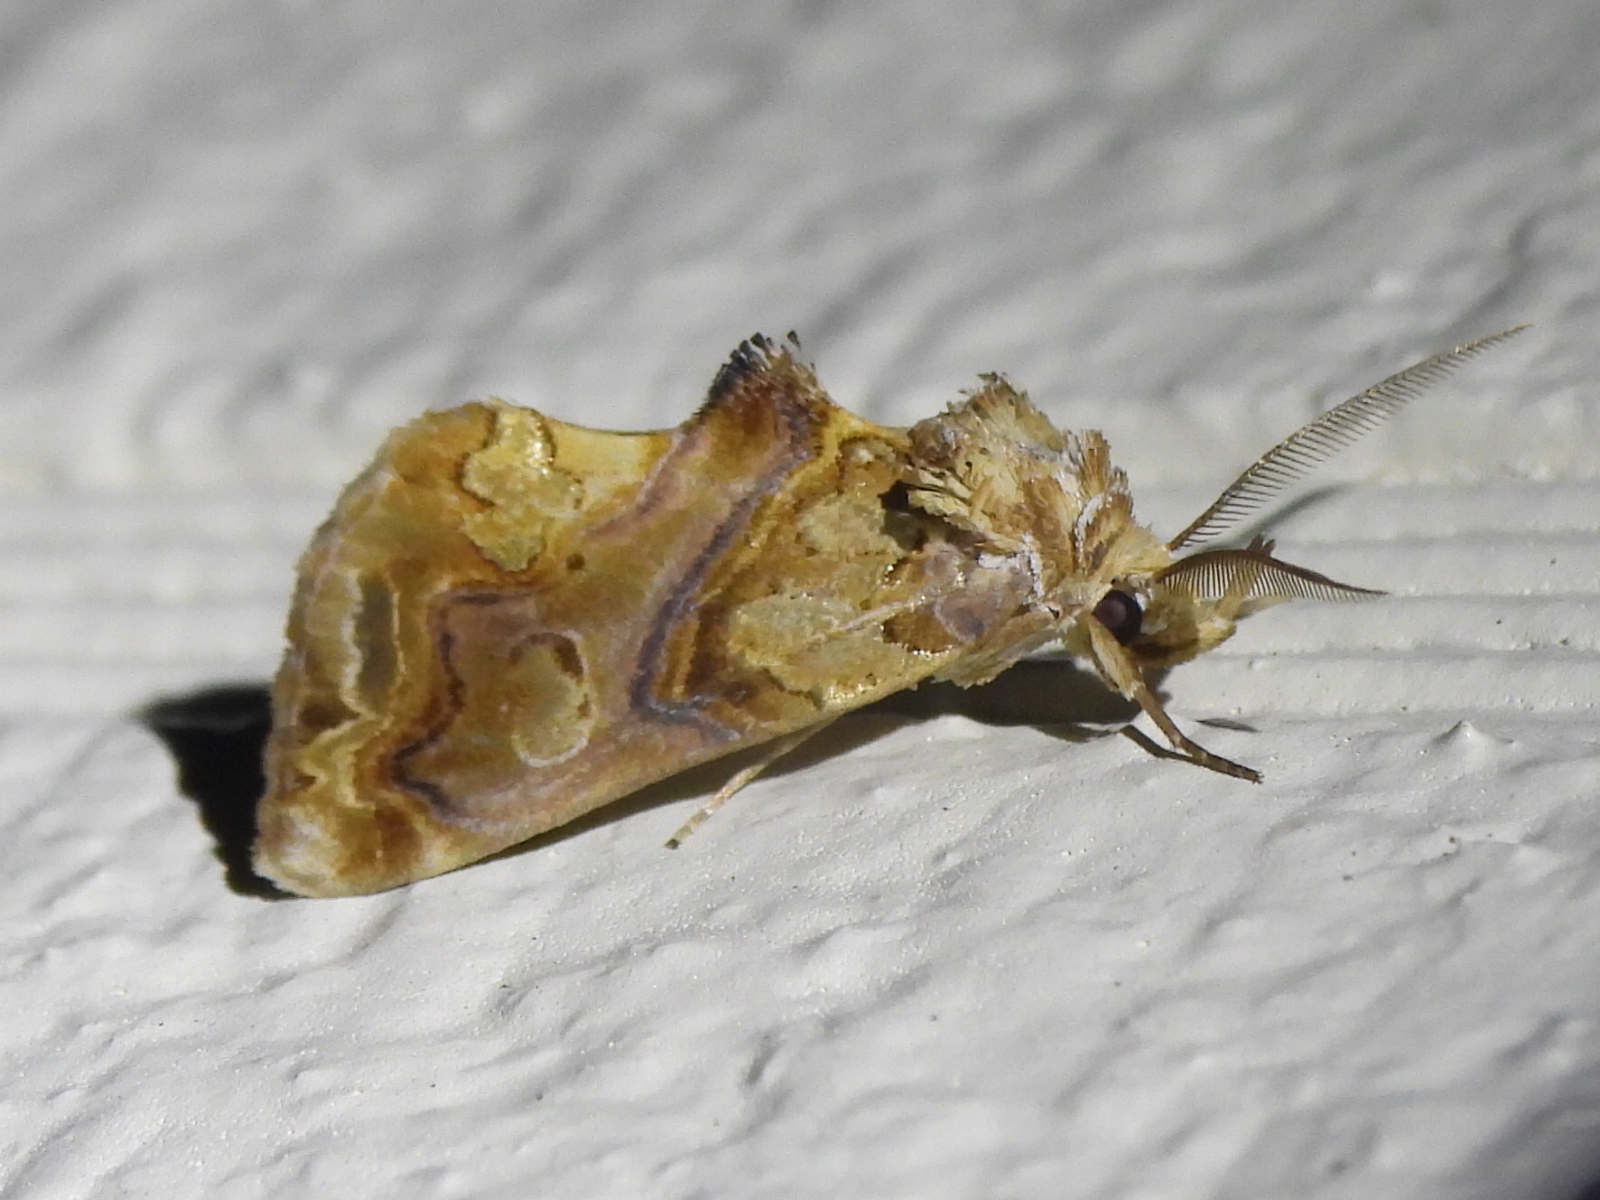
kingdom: Animalia
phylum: Arthropoda
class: Insecta
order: Lepidoptera
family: Erebidae
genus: Plusiodonta
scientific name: Plusiodonta compressipalpis
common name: Moonseed moth
